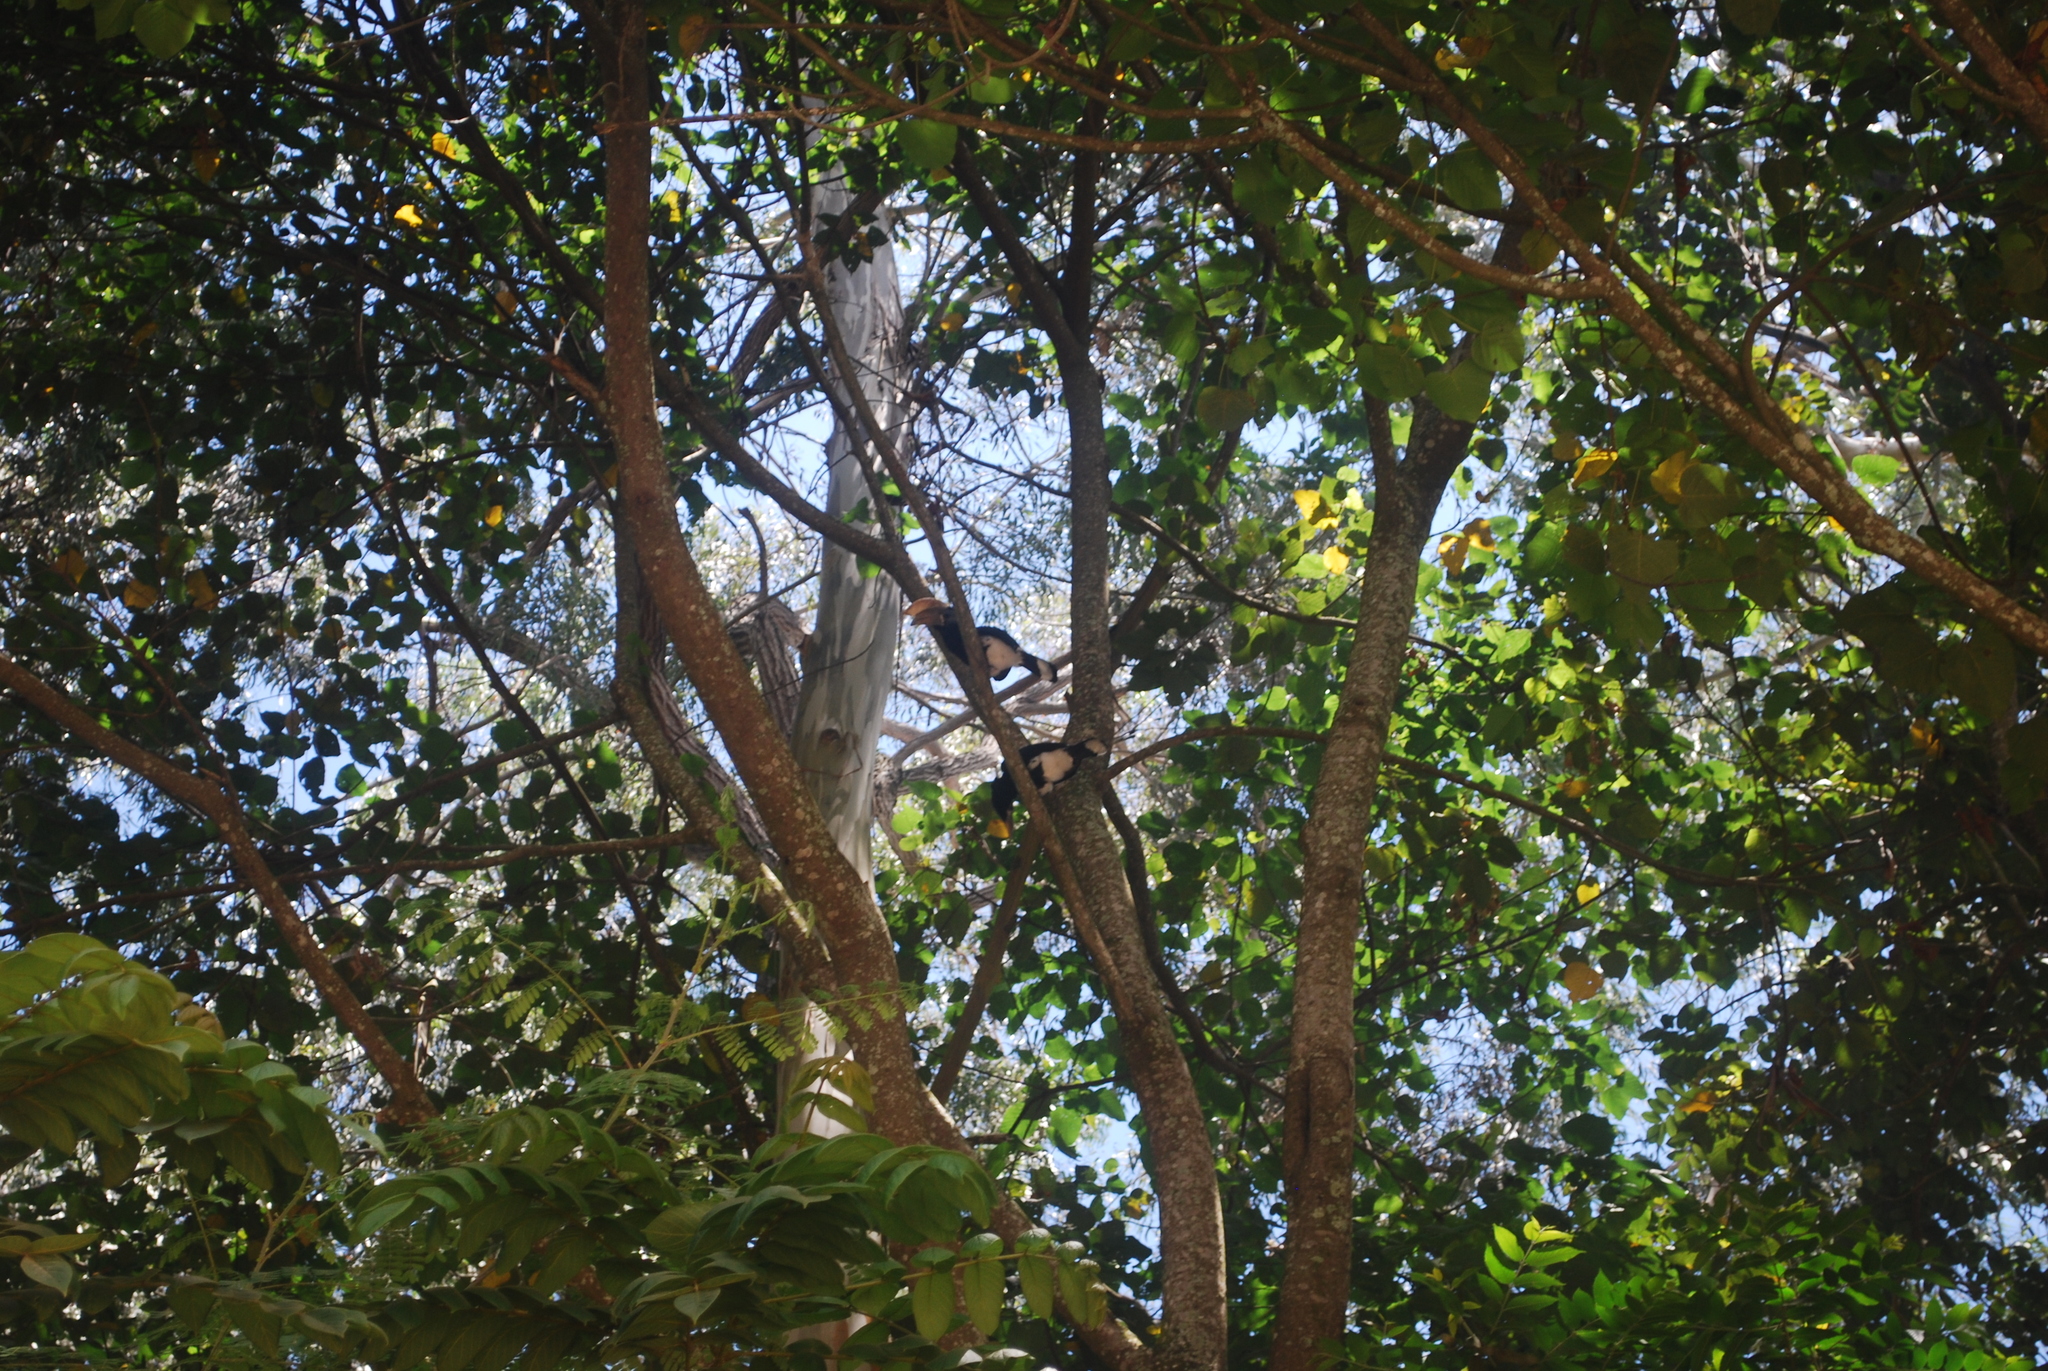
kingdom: Animalia
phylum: Chordata
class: Aves
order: Bucerotiformes
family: Bucerotidae
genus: Bycanistes
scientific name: Bycanistes brevis
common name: Silvery-cheeked hornbill
